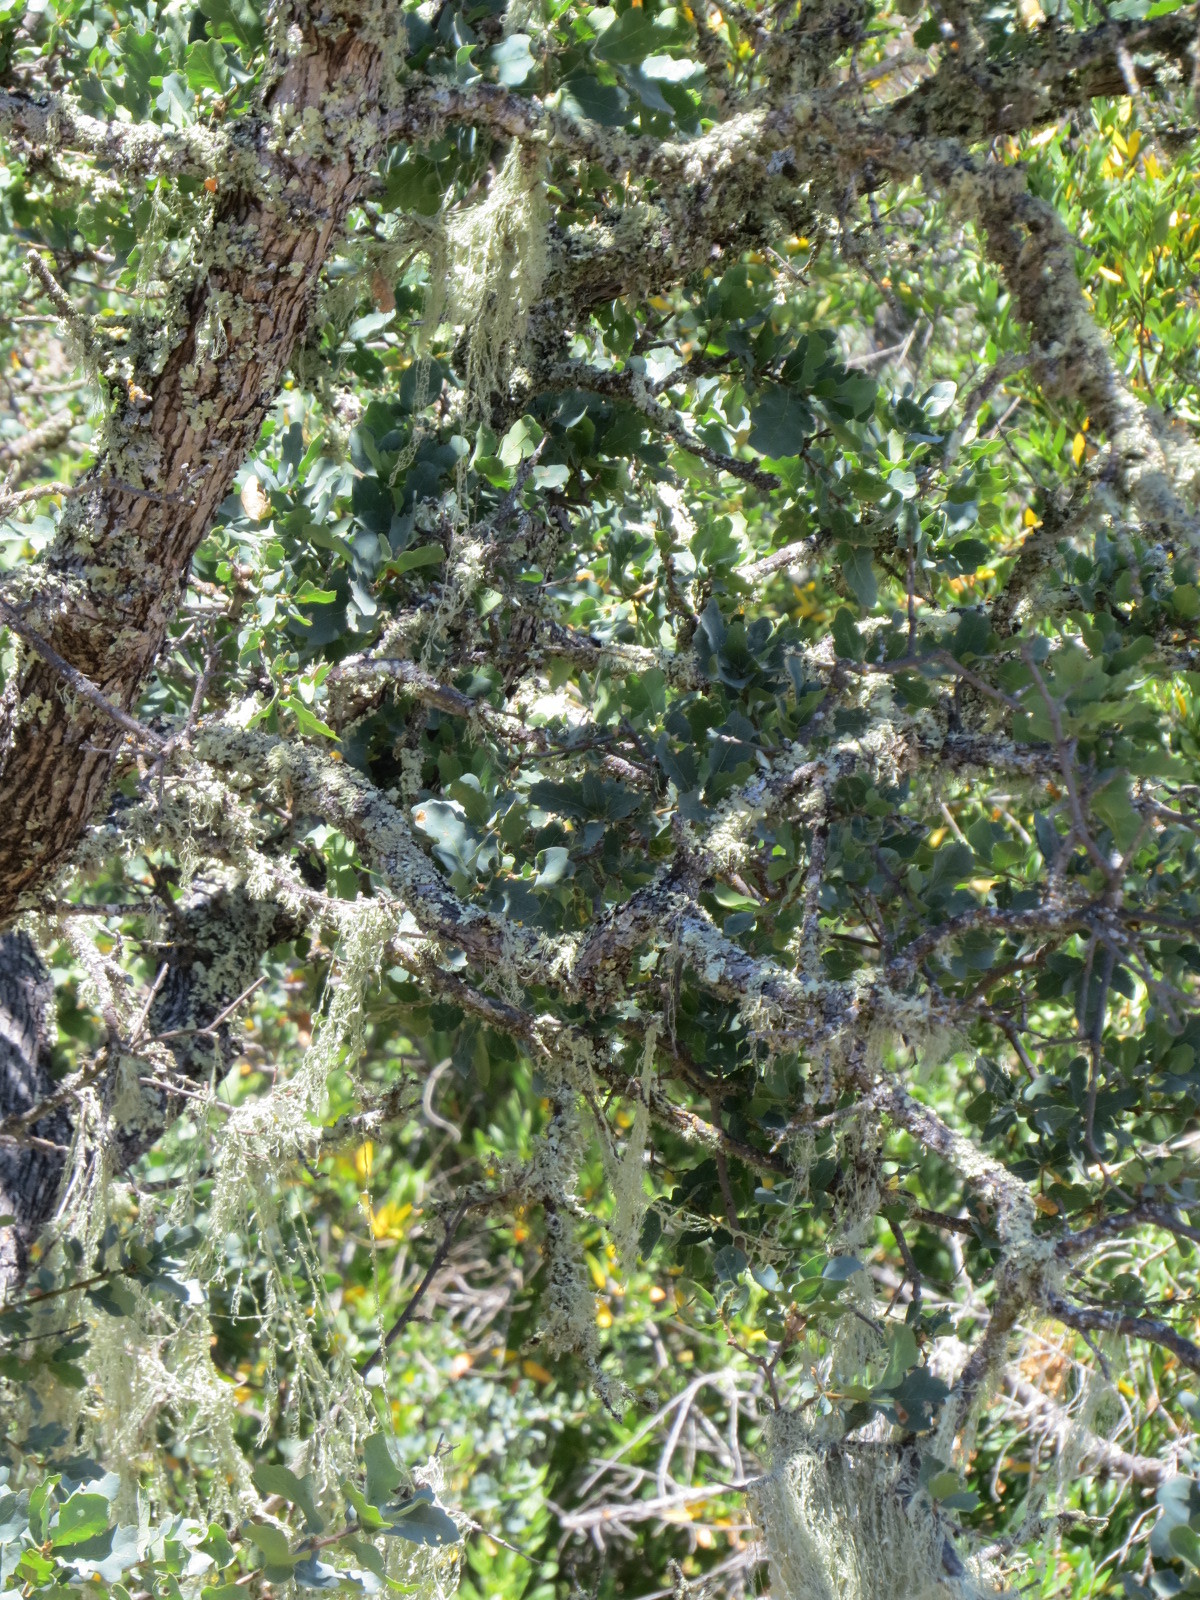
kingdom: Plantae
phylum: Tracheophyta
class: Magnoliopsida
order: Fagales
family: Fagaceae
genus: Quercus
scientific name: Quercus douglasii
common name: Blue oak
